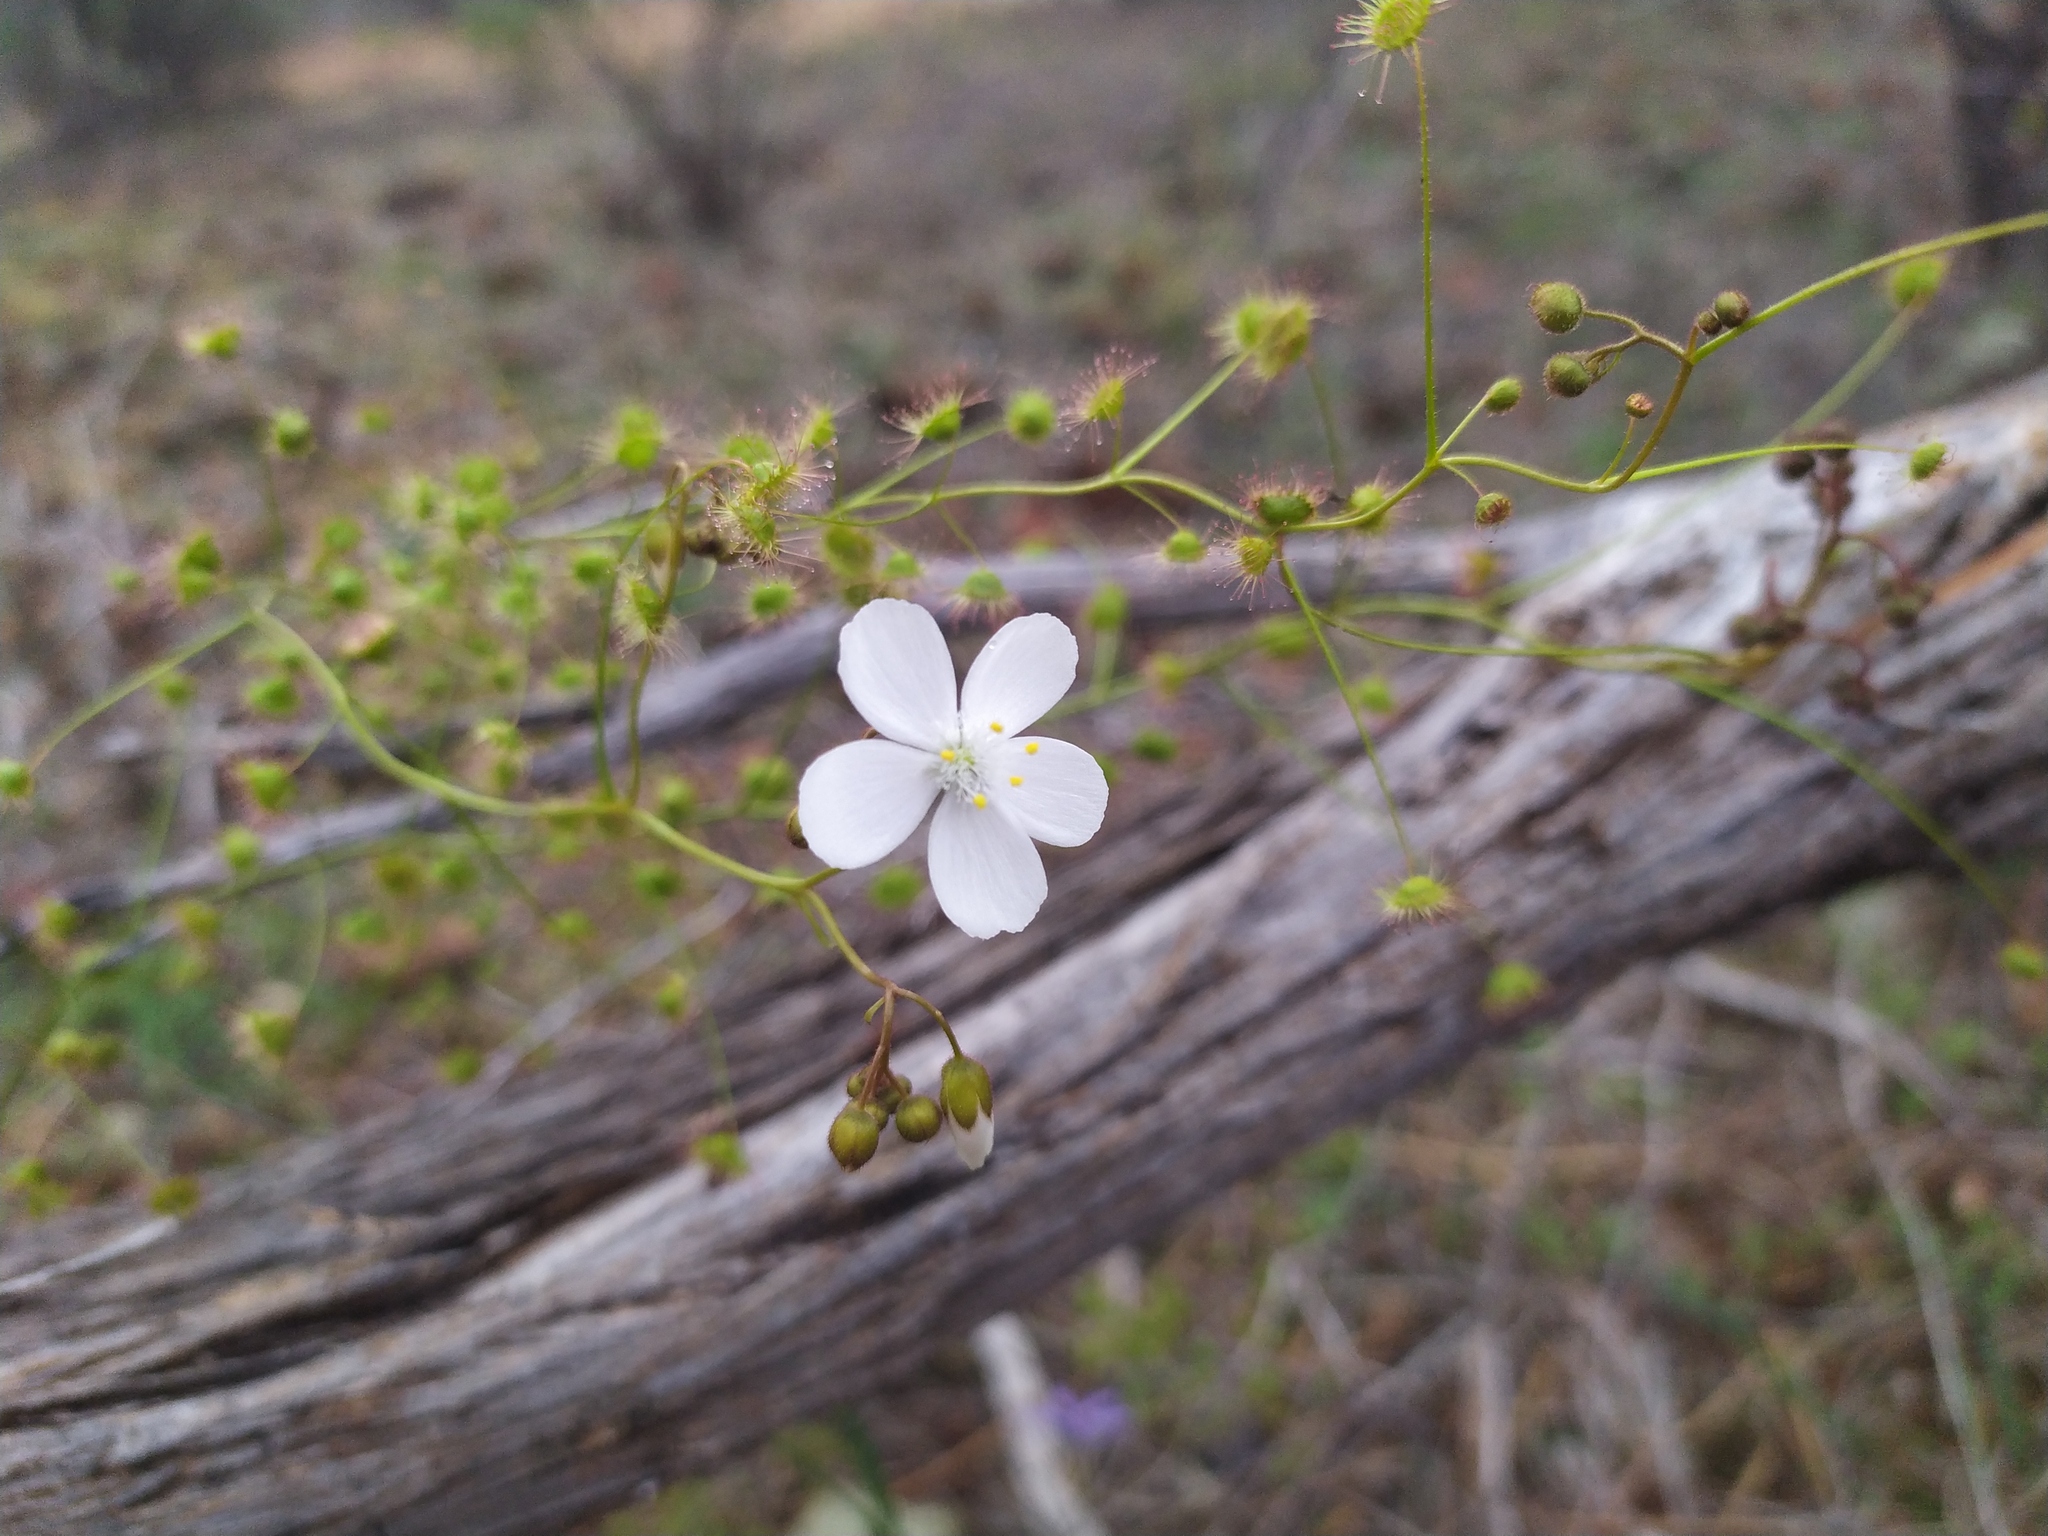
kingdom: Plantae
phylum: Tracheophyta
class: Magnoliopsida
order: Caryophyllales
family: Droseraceae
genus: Drosera
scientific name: Drosera macrantha
